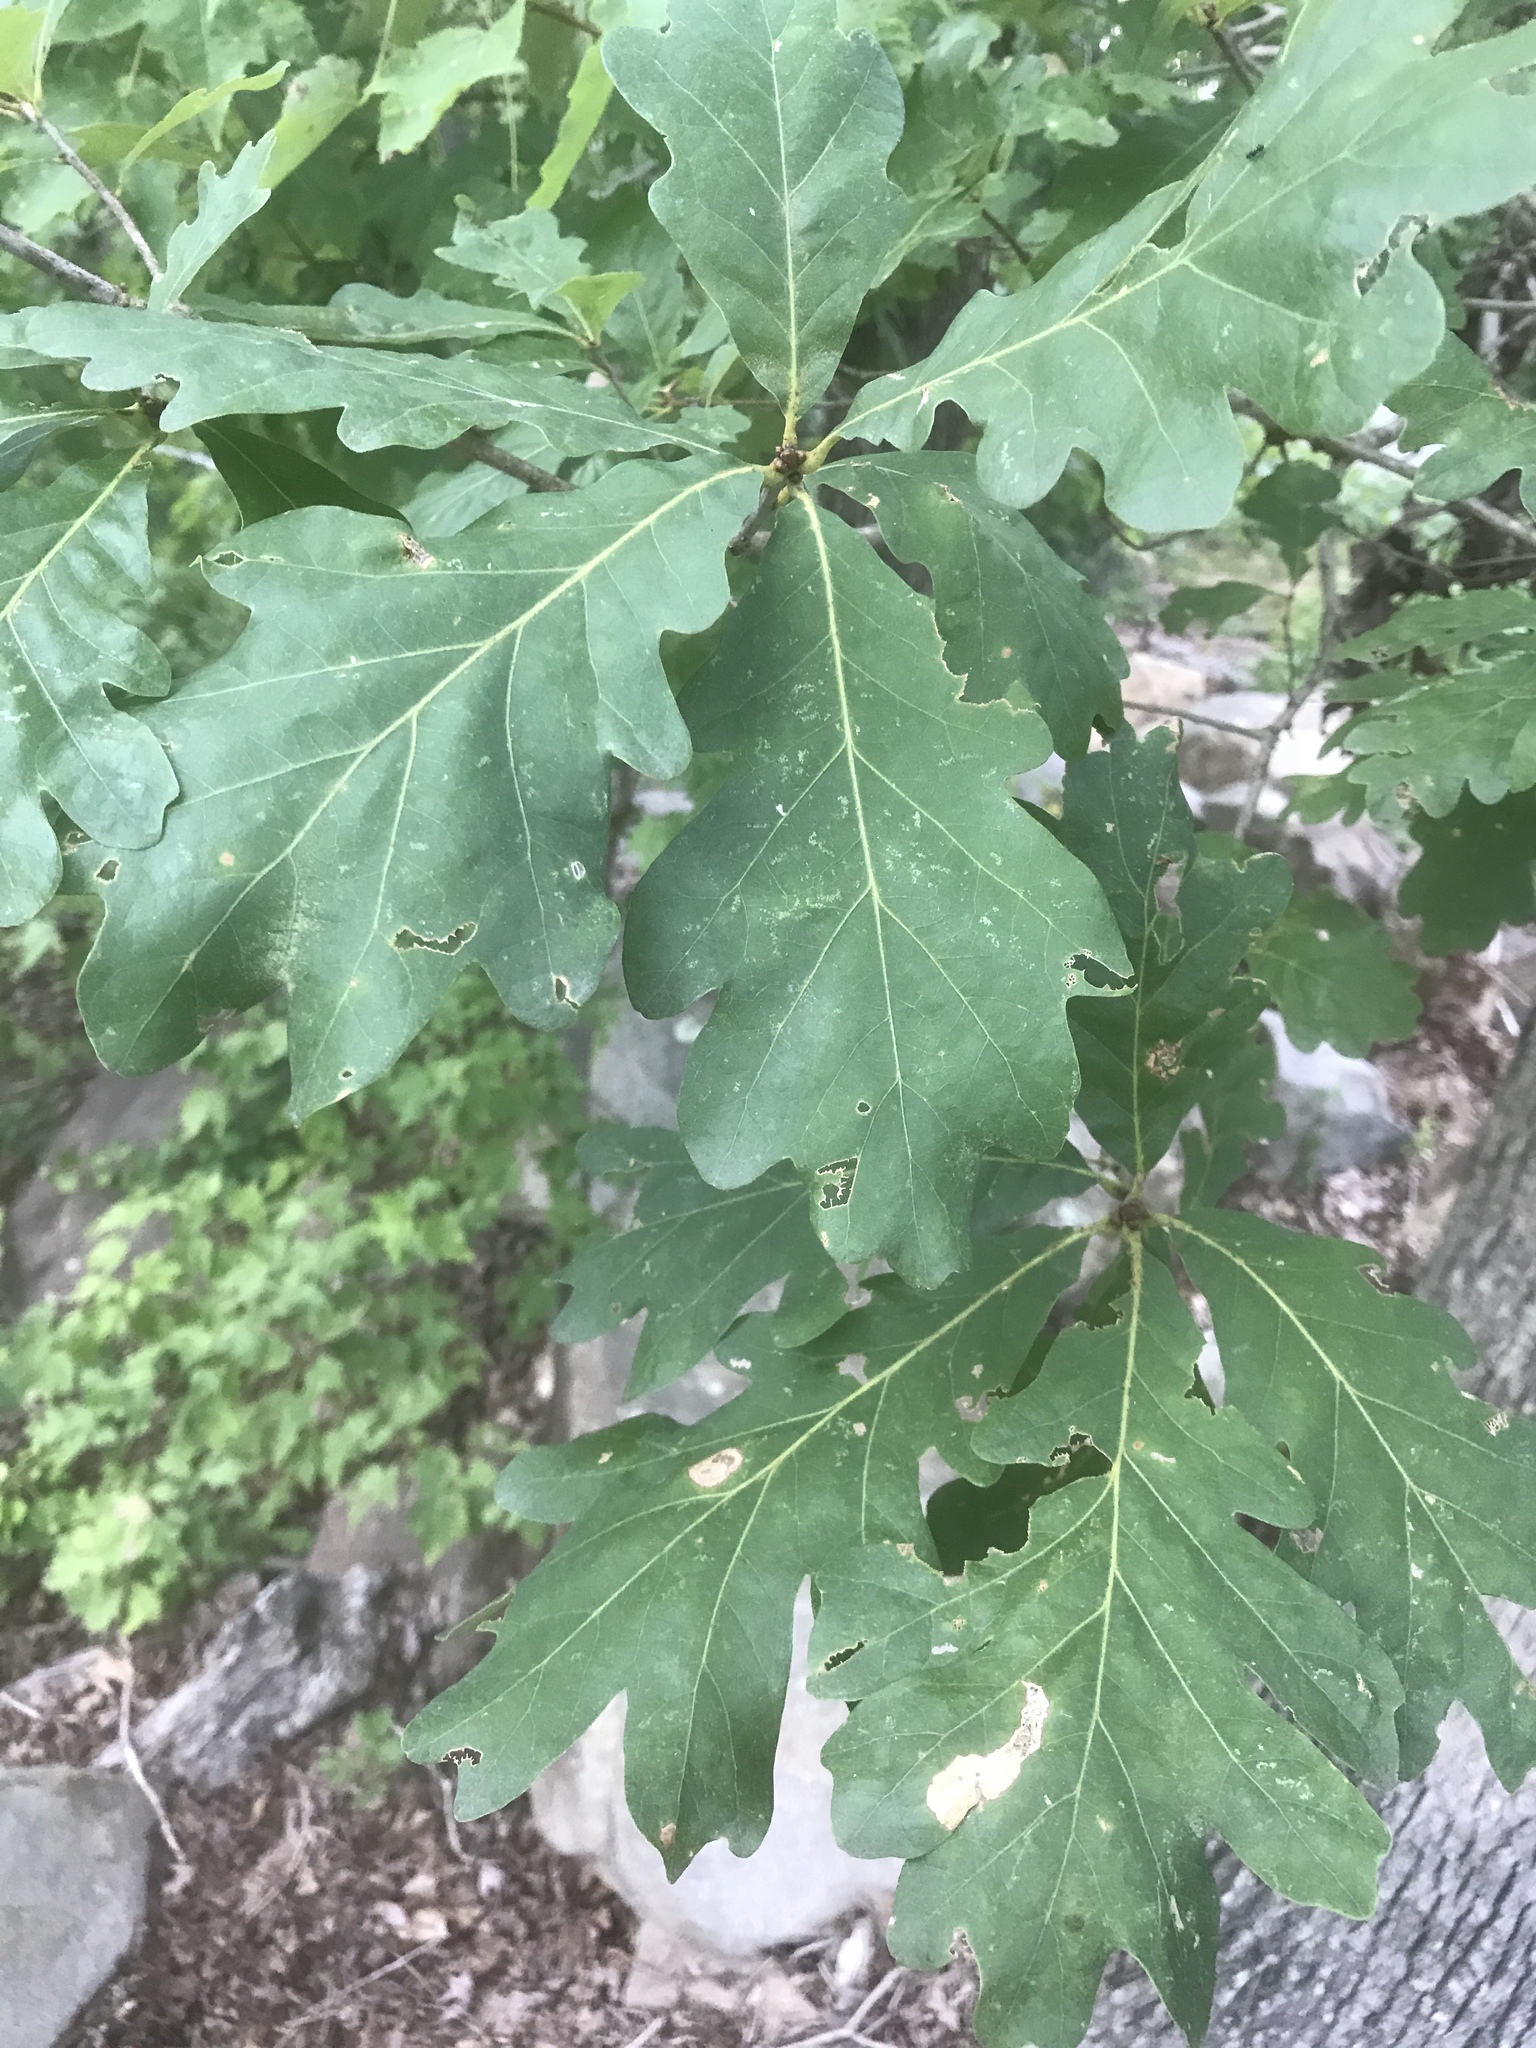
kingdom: Plantae
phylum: Tracheophyta
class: Magnoliopsida
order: Fagales
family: Fagaceae
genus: Quercus
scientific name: Quercus alba
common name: White oak
